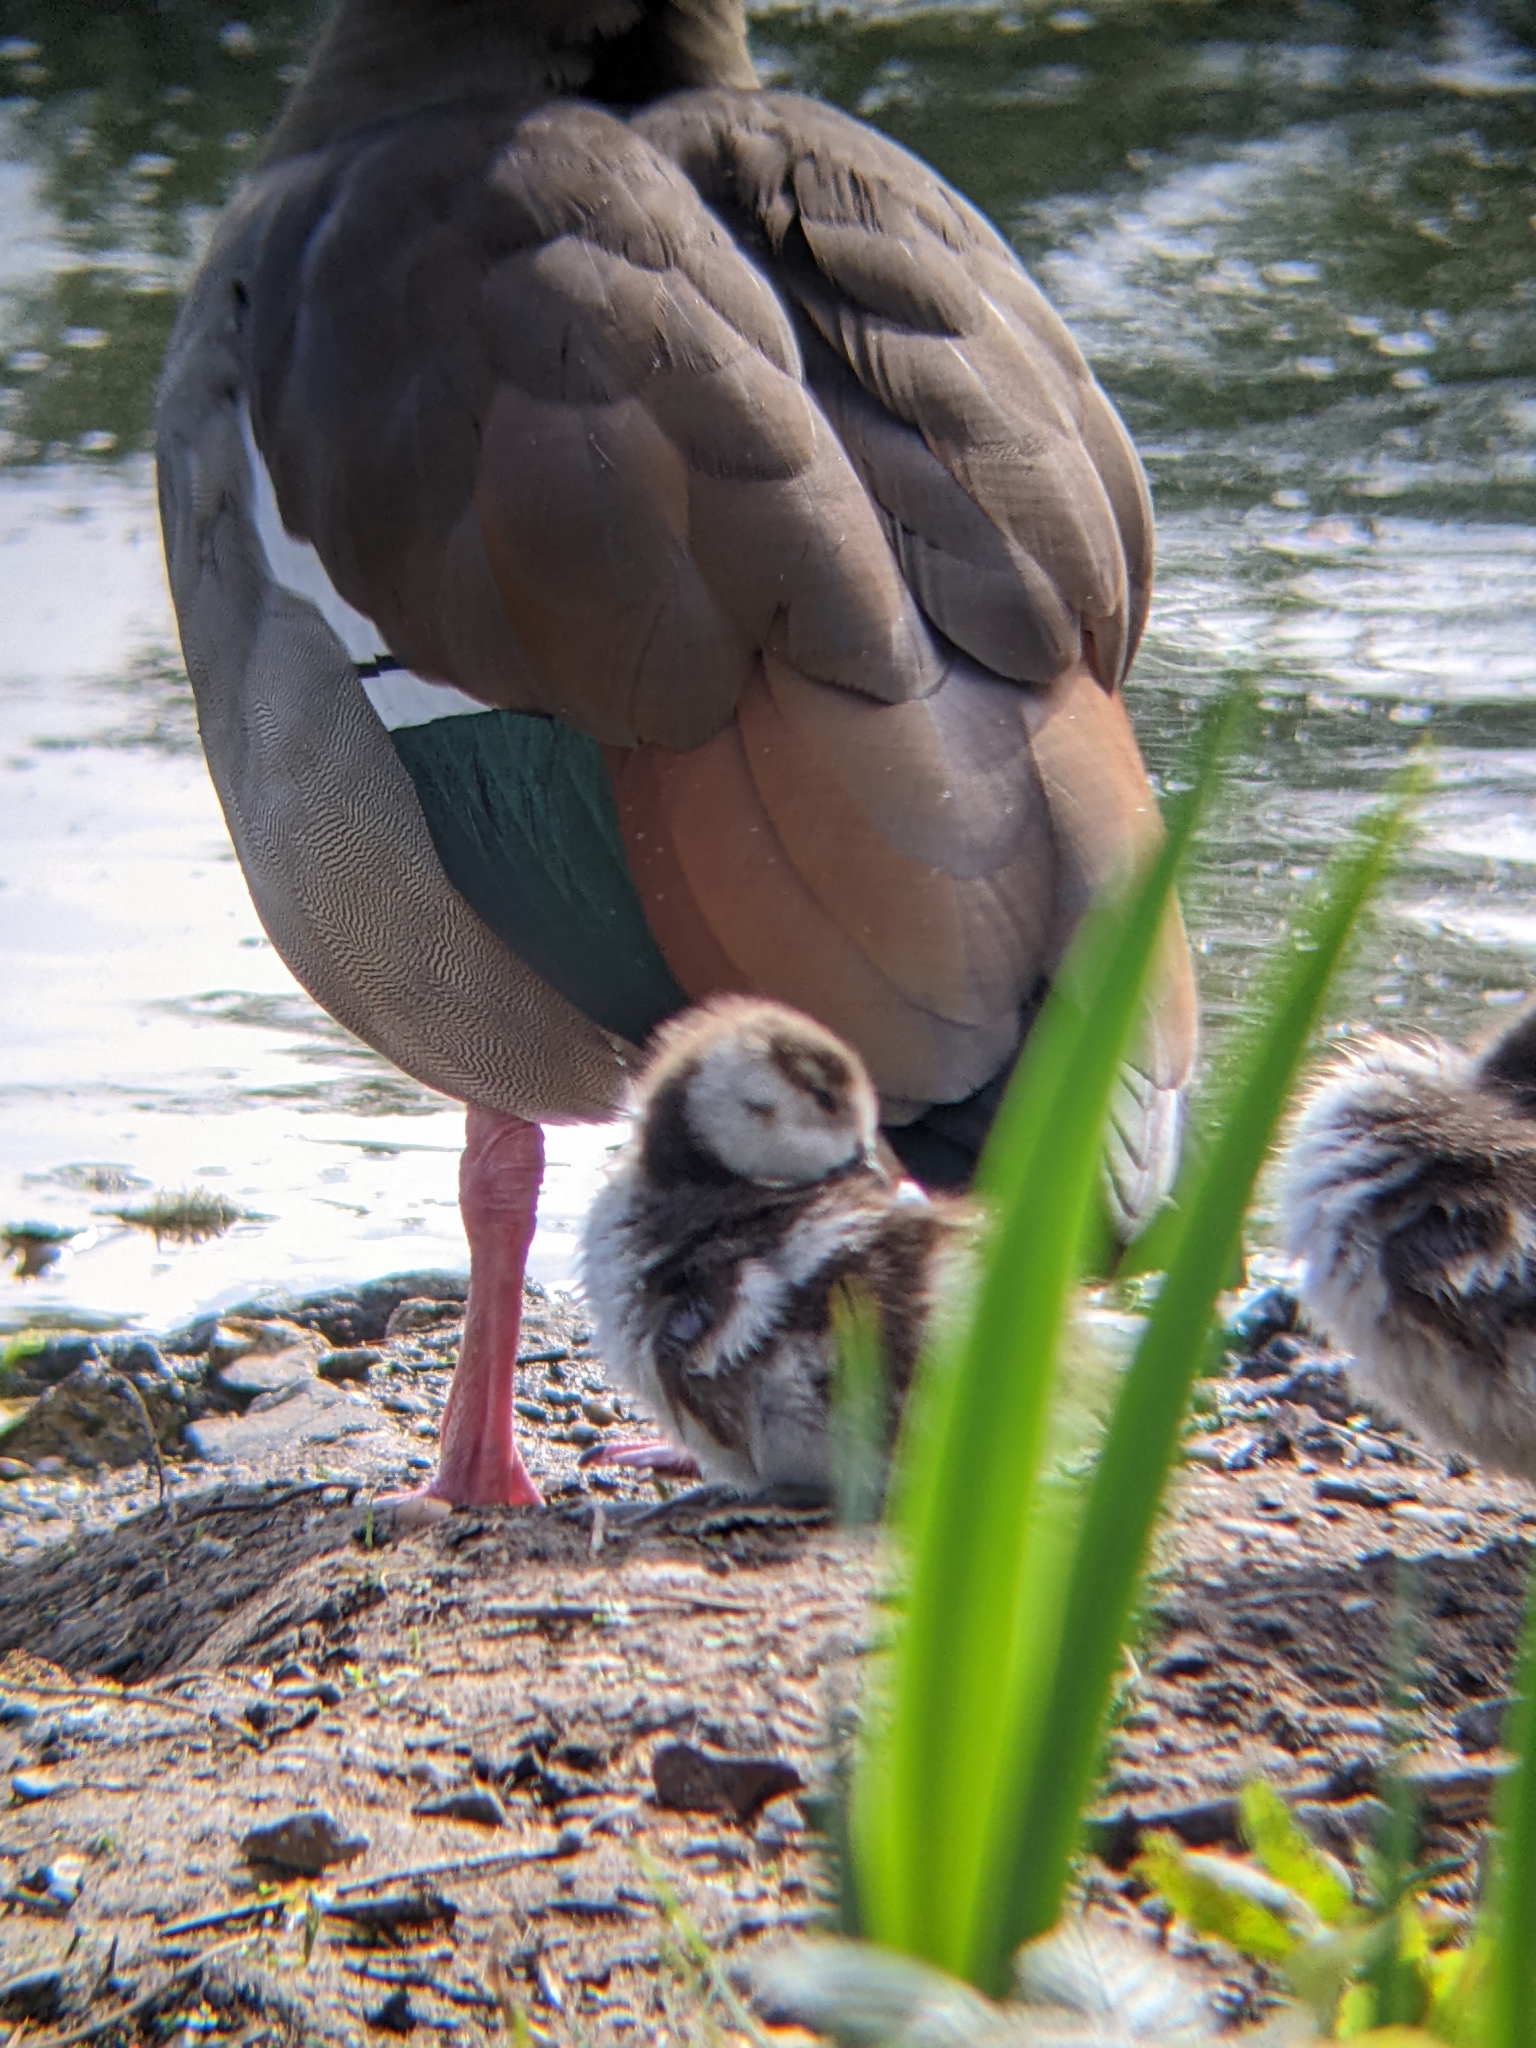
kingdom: Animalia
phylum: Chordata
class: Aves
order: Anseriformes
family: Anatidae
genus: Alopochen
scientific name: Alopochen aegyptiaca
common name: Egyptian goose
